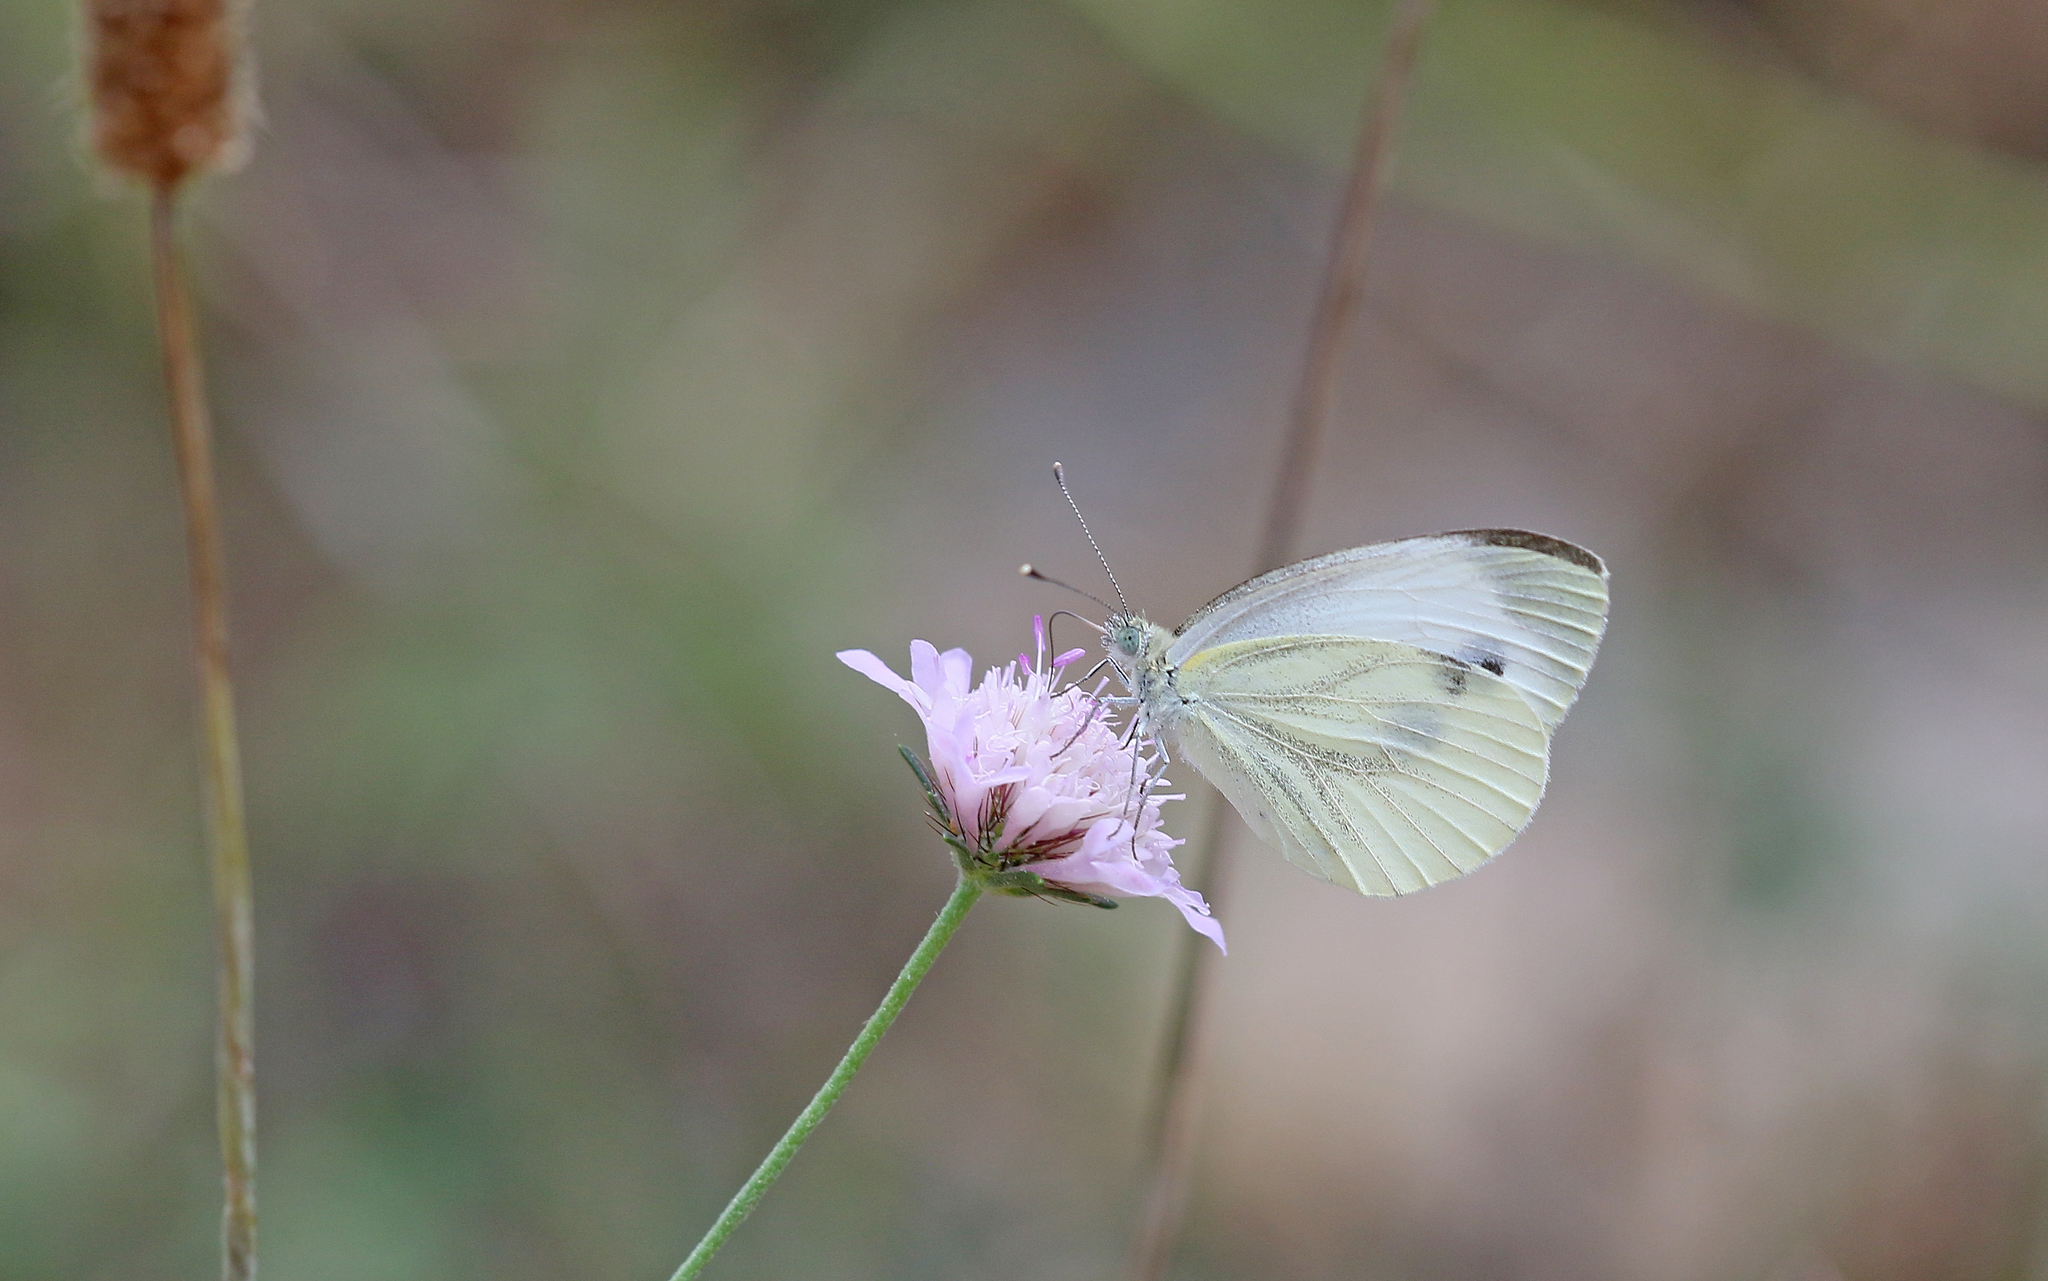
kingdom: Animalia
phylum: Arthropoda
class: Insecta
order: Lepidoptera
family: Pieridae
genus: Pieris
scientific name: Pieris napi
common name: Green-veined white
